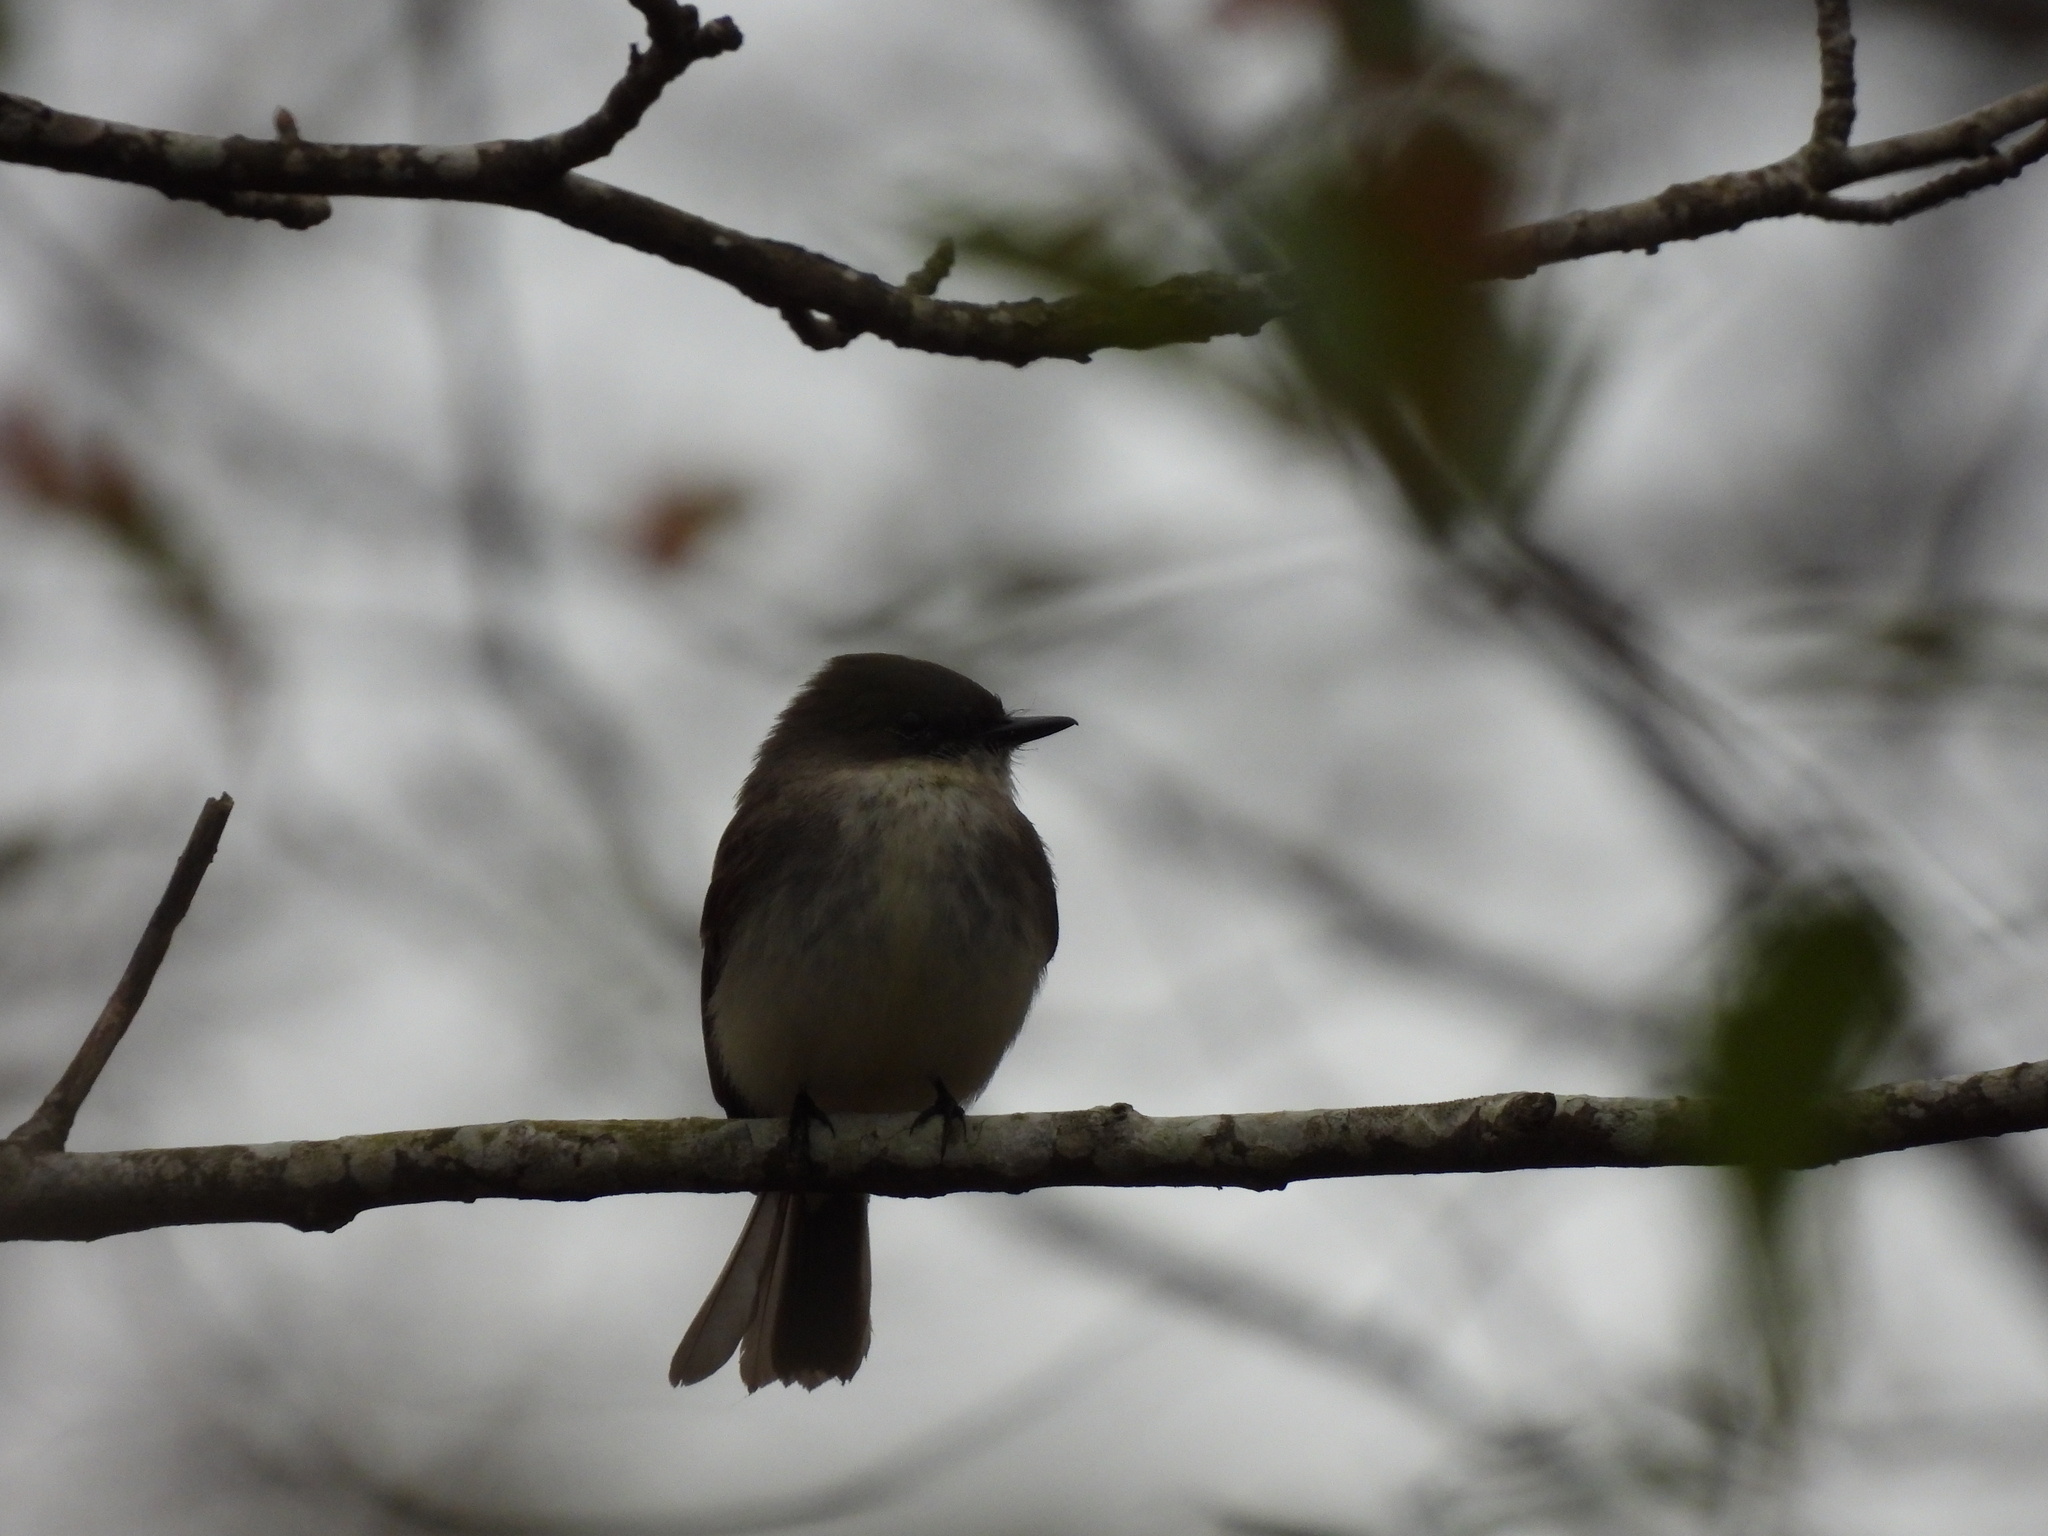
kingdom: Animalia
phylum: Chordata
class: Aves
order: Passeriformes
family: Tyrannidae
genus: Sayornis
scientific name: Sayornis phoebe
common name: Eastern phoebe
